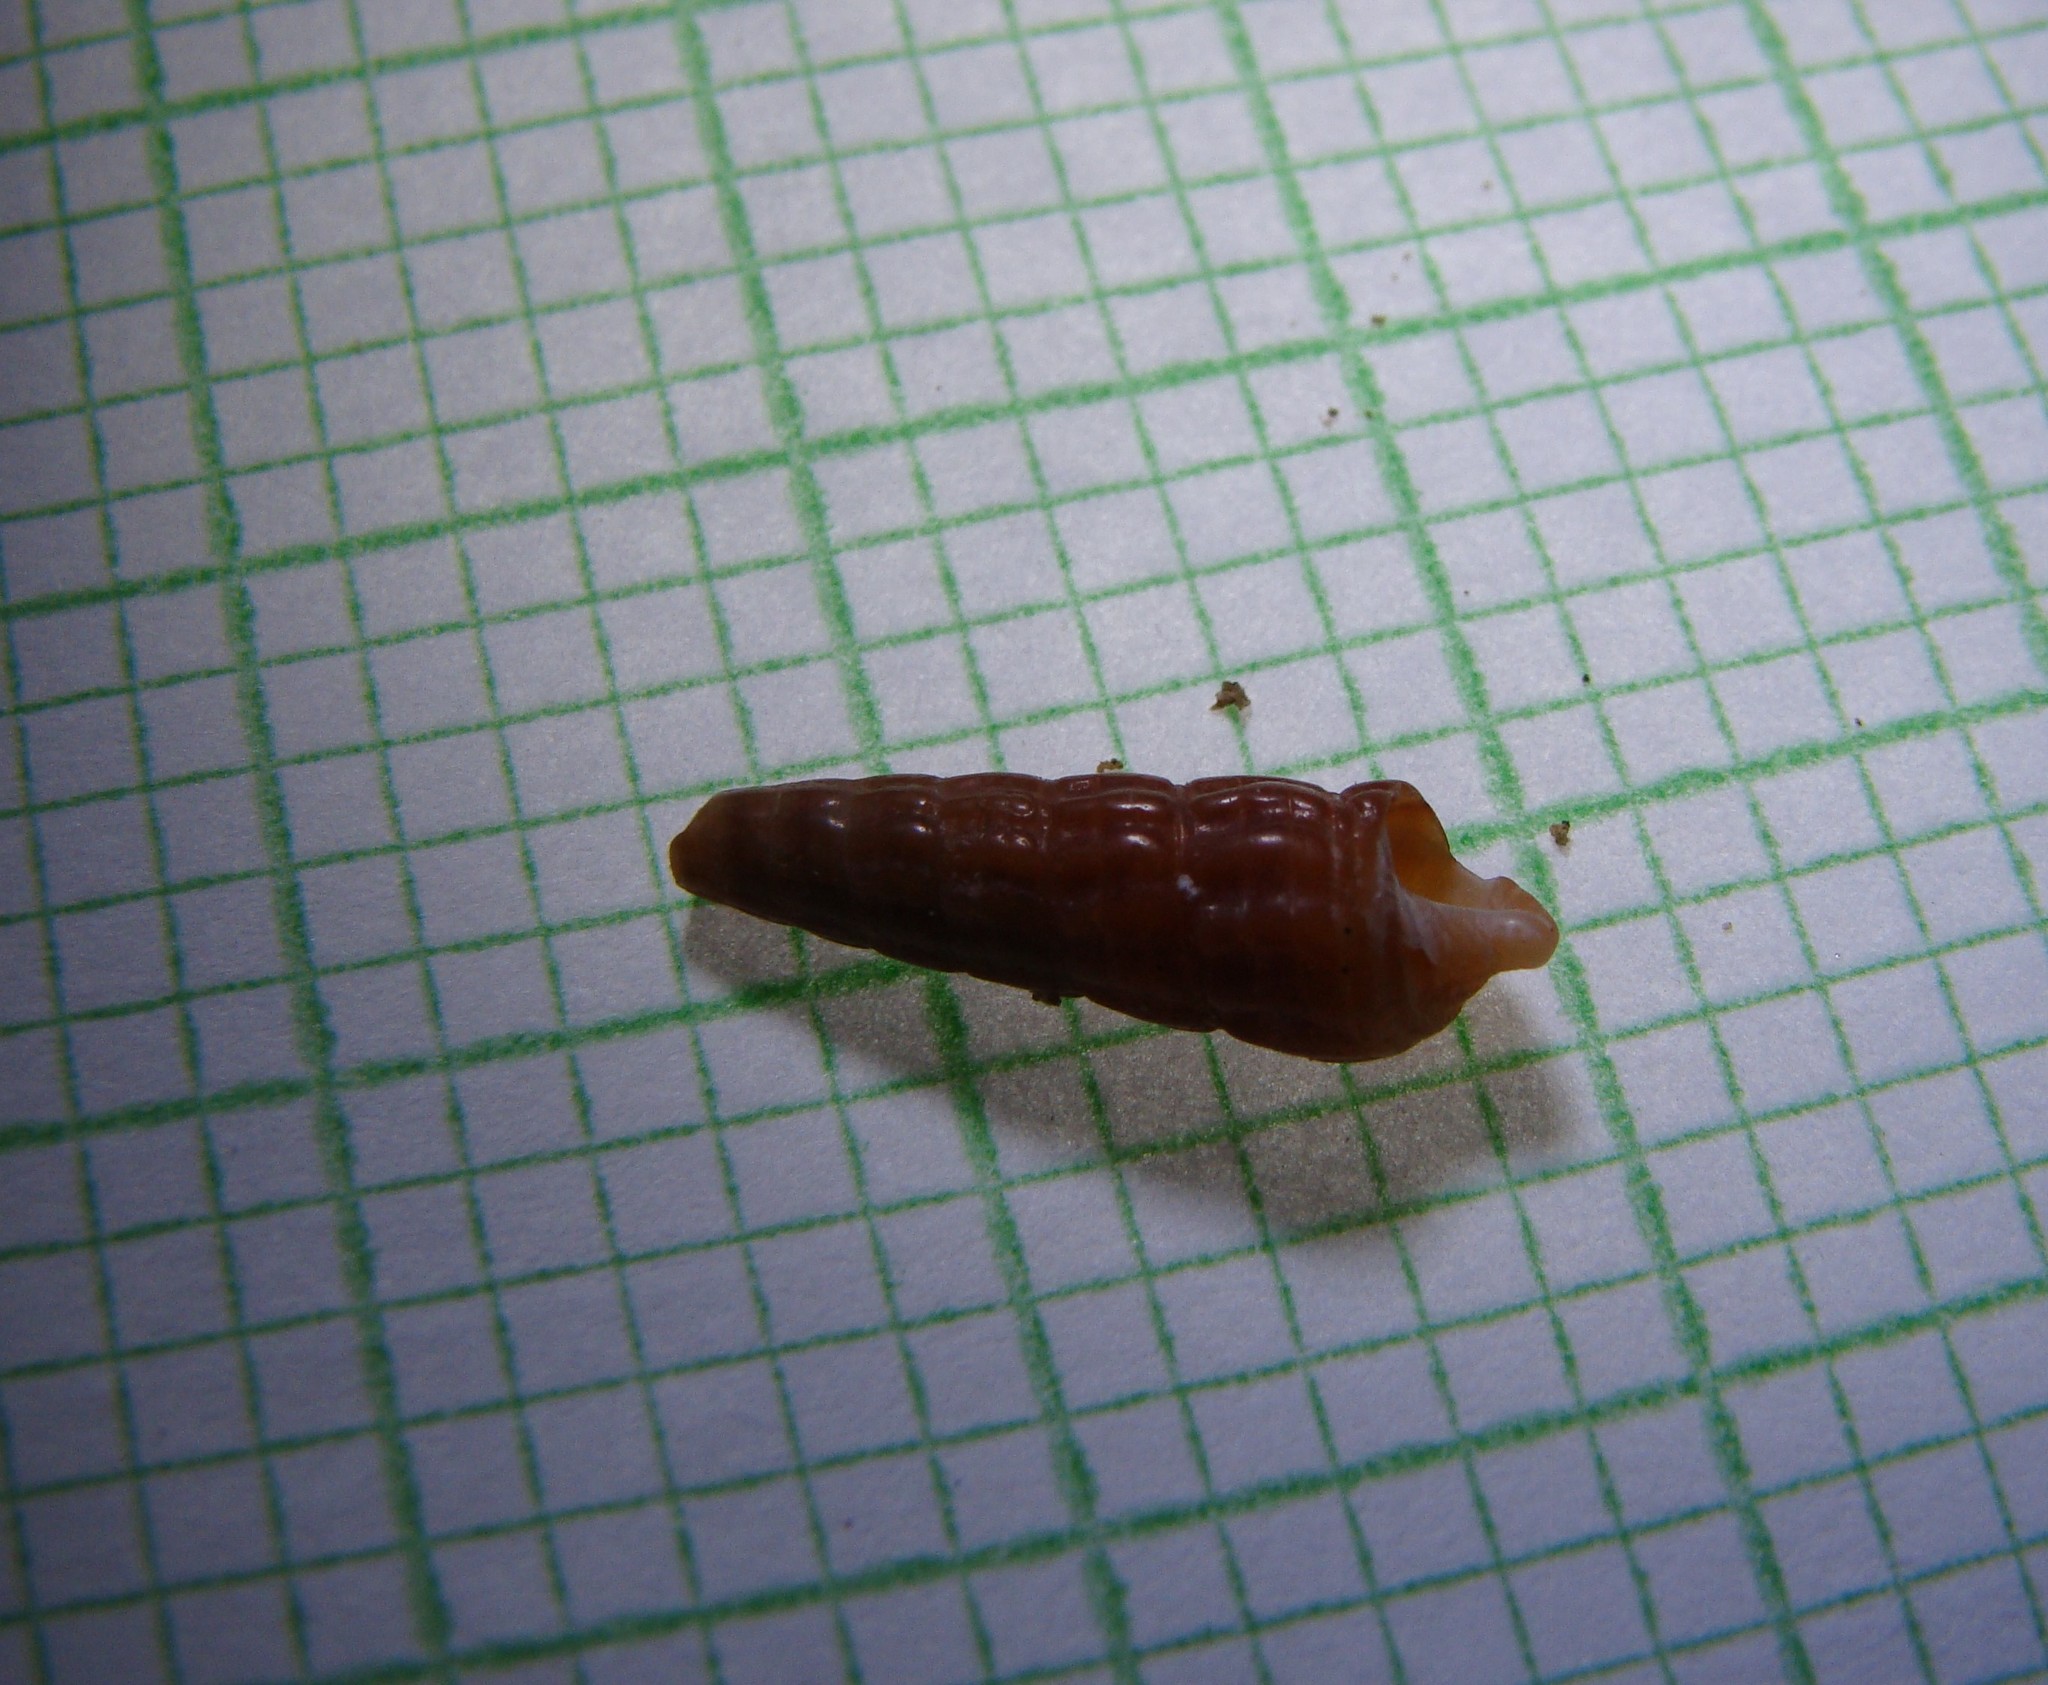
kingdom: Animalia
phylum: Mollusca
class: Gastropoda
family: Batillariidae
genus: Zeacumantus
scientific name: Zeacumantus subcarinatus
